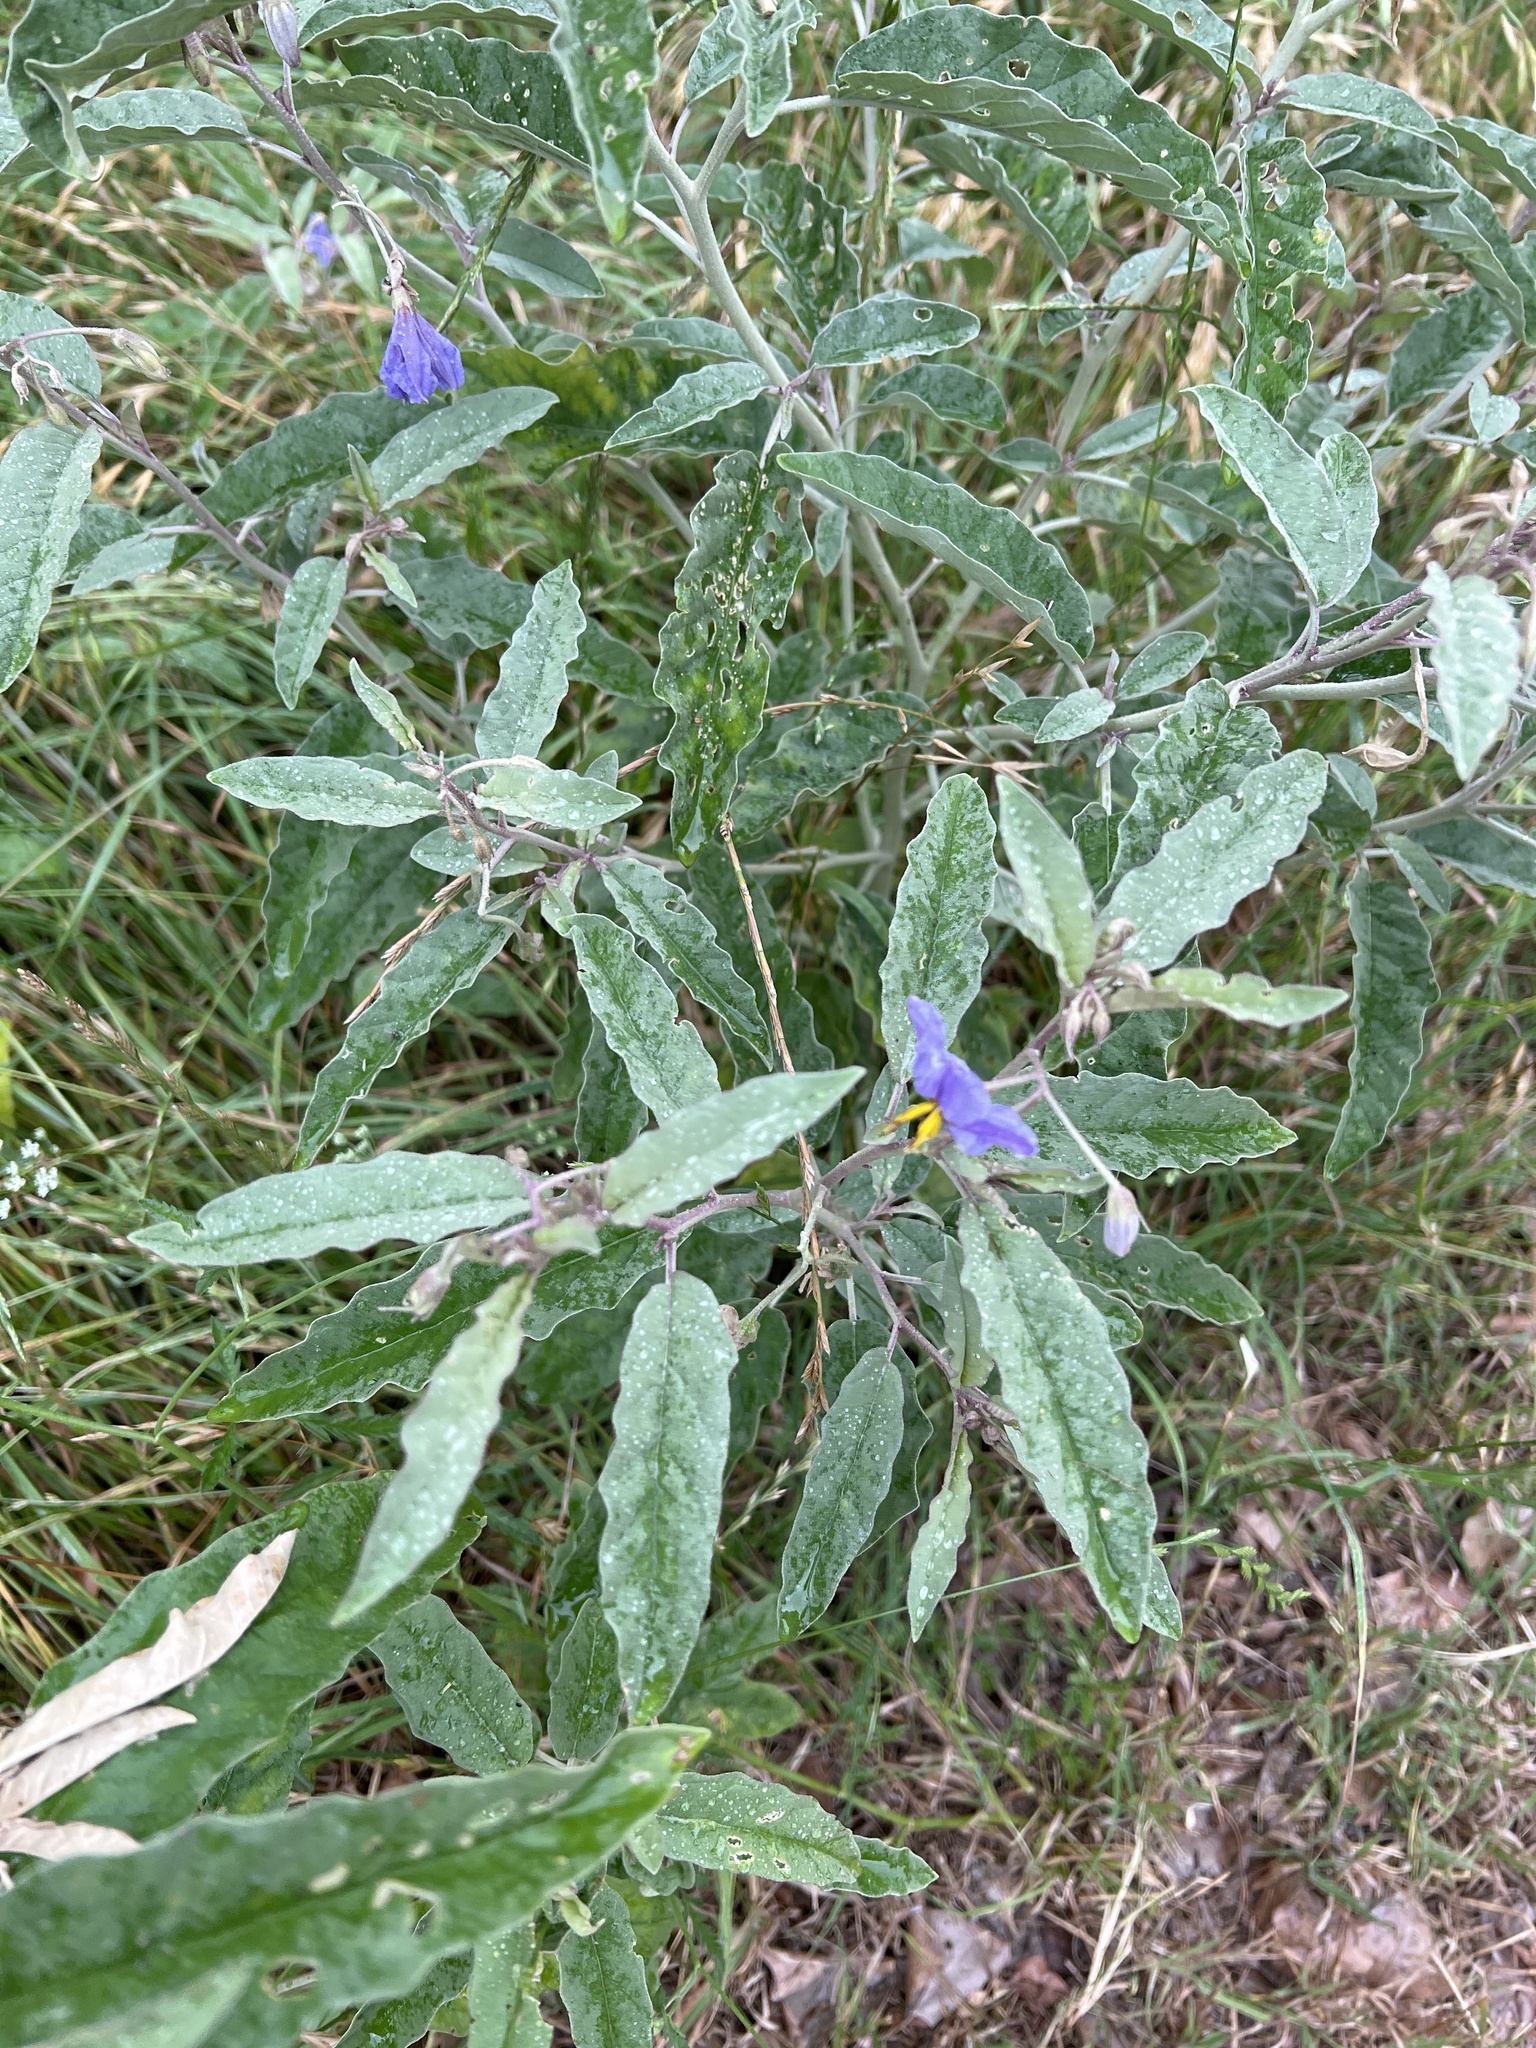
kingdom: Plantae
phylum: Tracheophyta
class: Magnoliopsida
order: Solanales
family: Solanaceae
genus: Solanum
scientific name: Solanum elaeagnifolium
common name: Silverleaf nightshade
